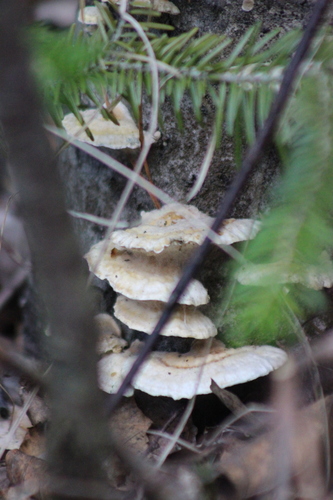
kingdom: Fungi
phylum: Basidiomycota
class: Agaricomycetes
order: Polyporales
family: Polyporaceae
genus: Trametes
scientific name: Trametes ochracea
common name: Ochre bracket
